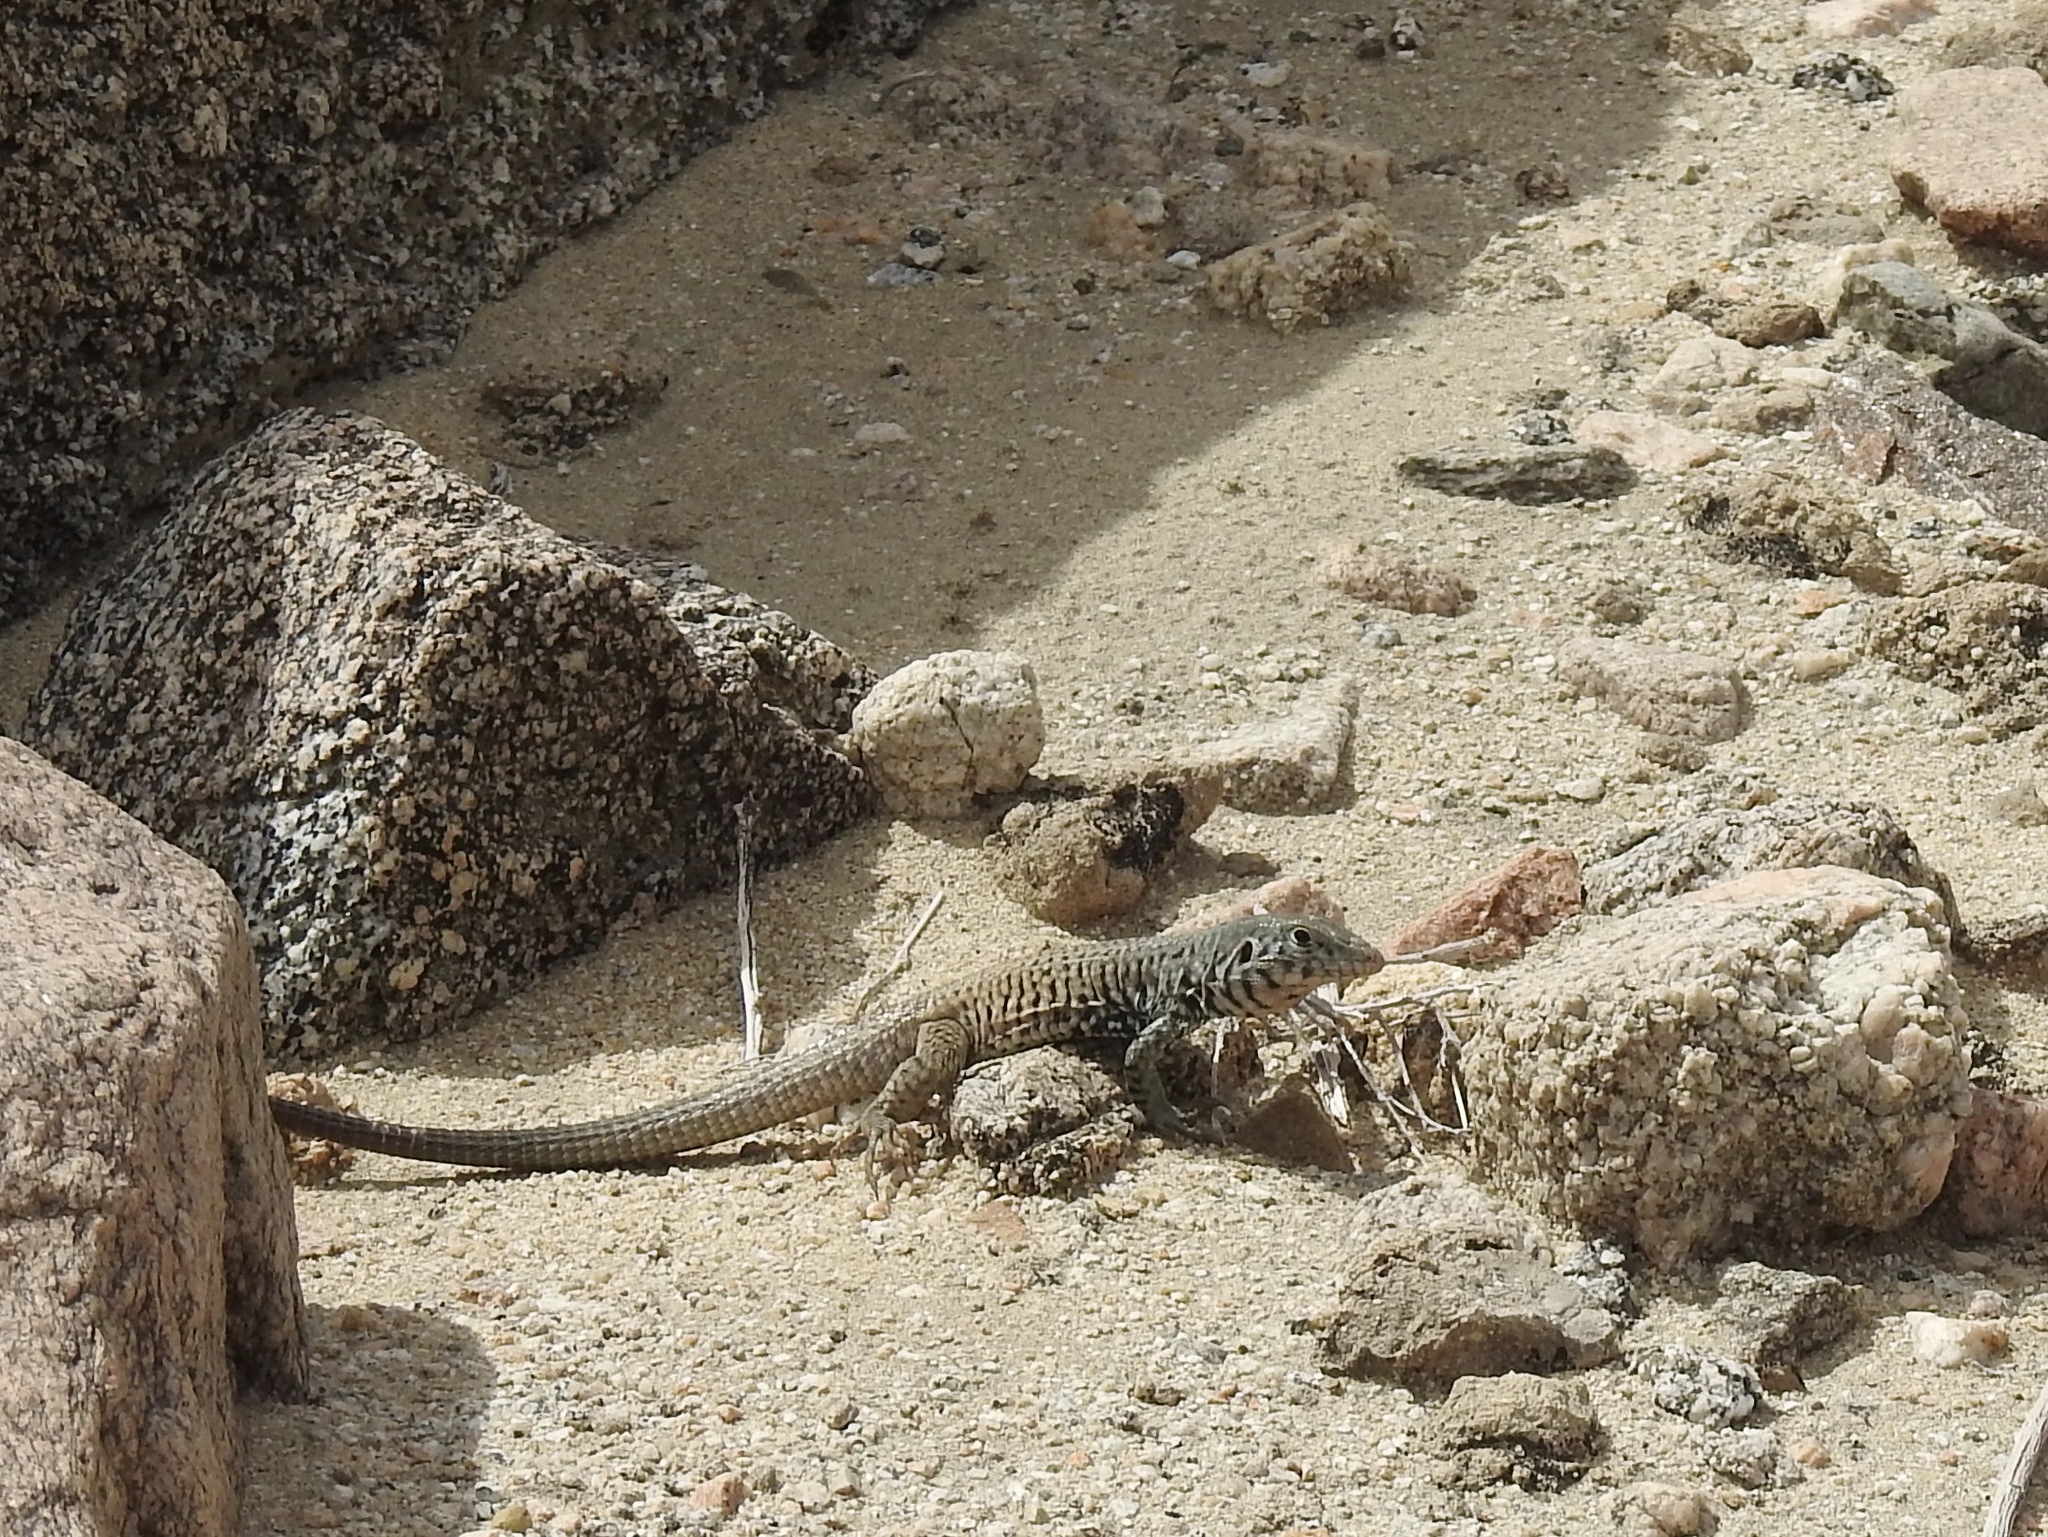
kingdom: Animalia
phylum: Chordata
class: Squamata
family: Teiidae
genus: Aspidoscelis
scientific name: Aspidoscelis tigris
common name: Tiger whiptail
